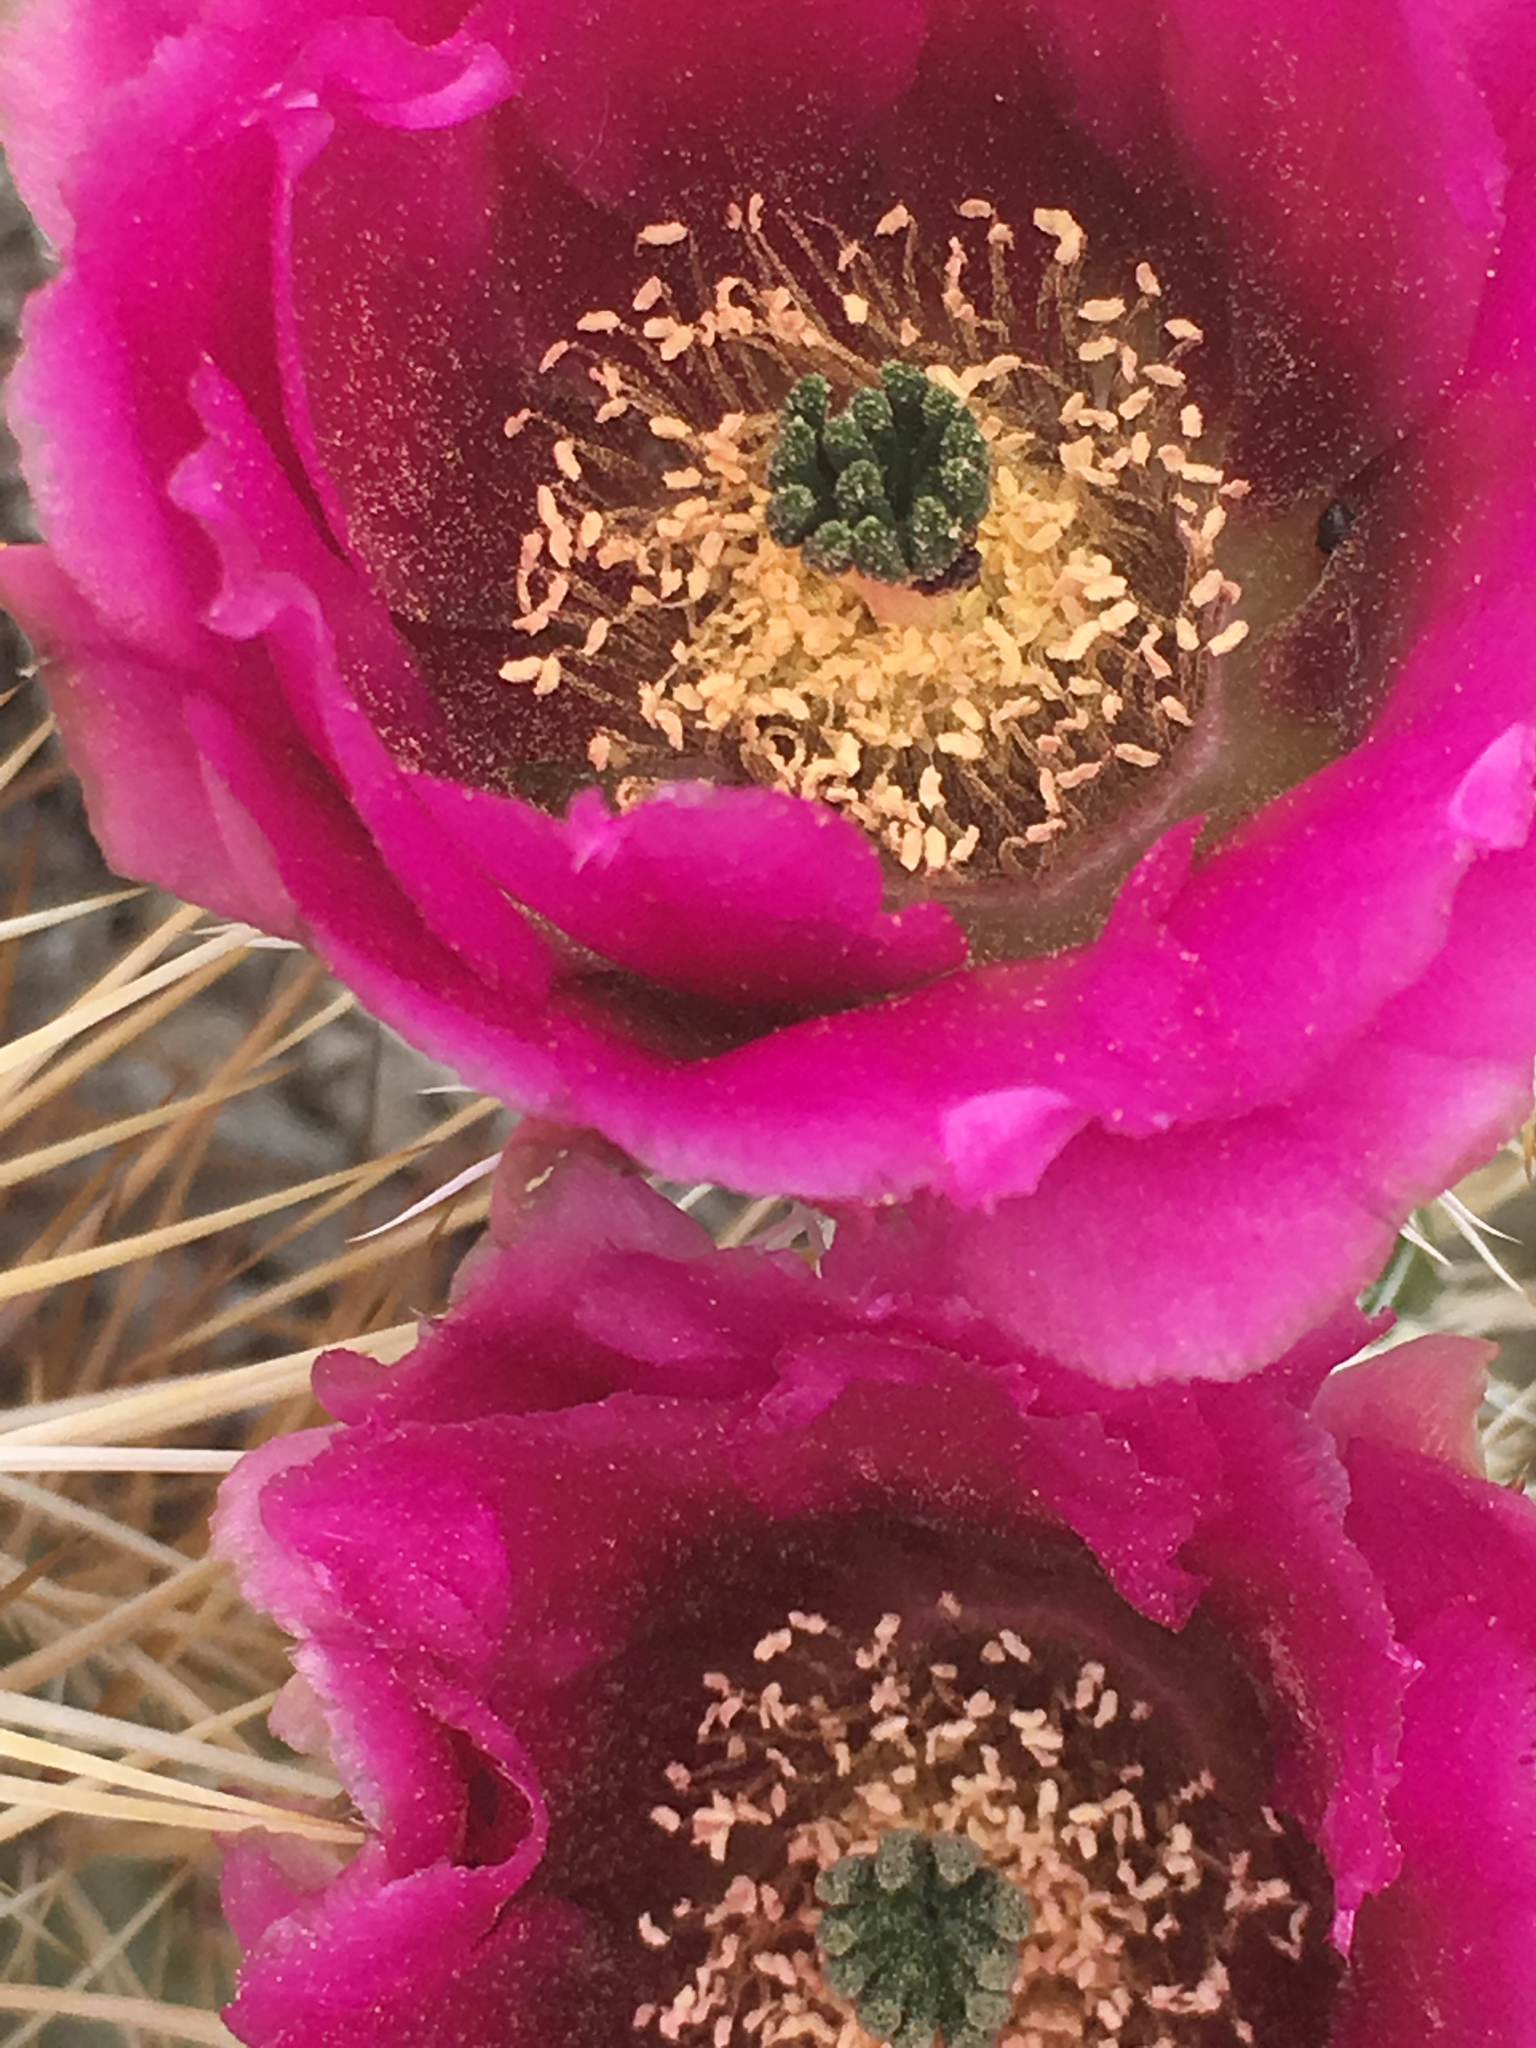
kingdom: Plantae
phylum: Tracheophyta
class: Magnoliopsida
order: Caryophyllales
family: Cactaceae
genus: Echinocereus
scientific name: Echinocereus engelmannii
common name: Engelmann's hedgehog cactus
